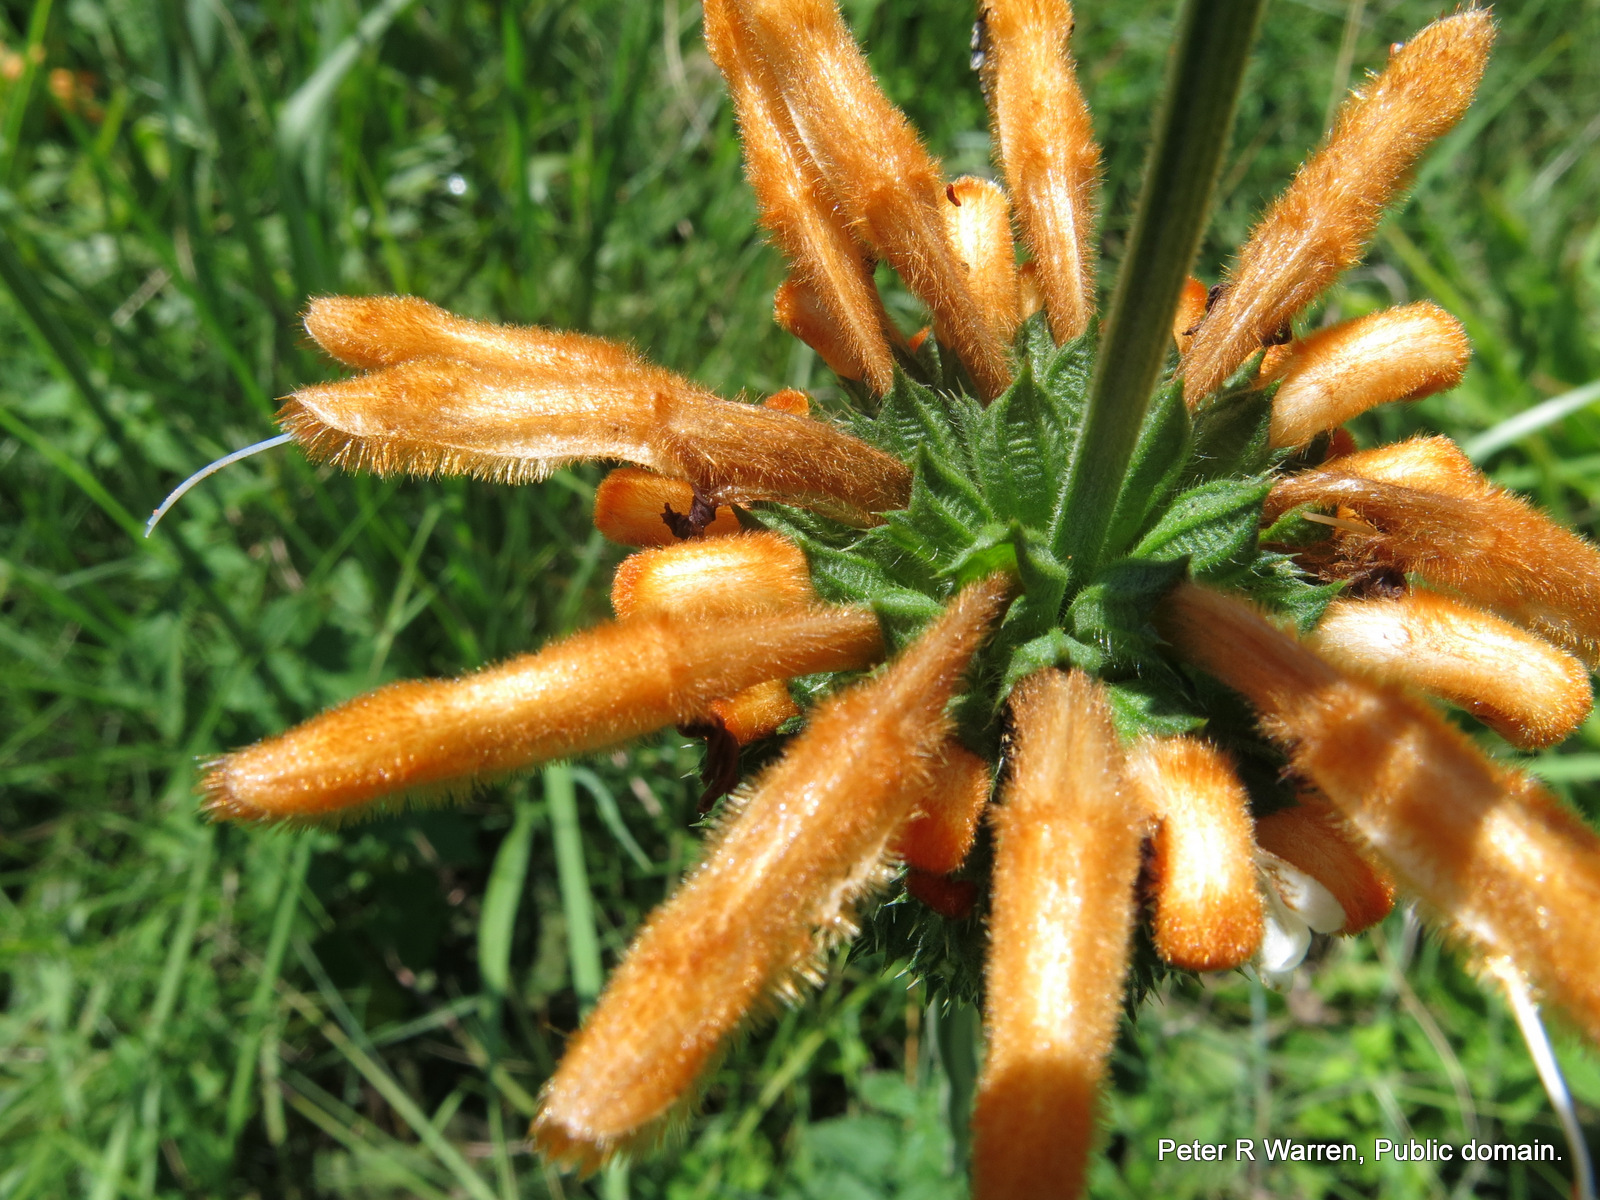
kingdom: Plantae
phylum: Tracheophyta
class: Magnoliopsida
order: Lamiales
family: Lamiaceae
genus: Leonotis
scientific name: Leonotis ocymifolia
